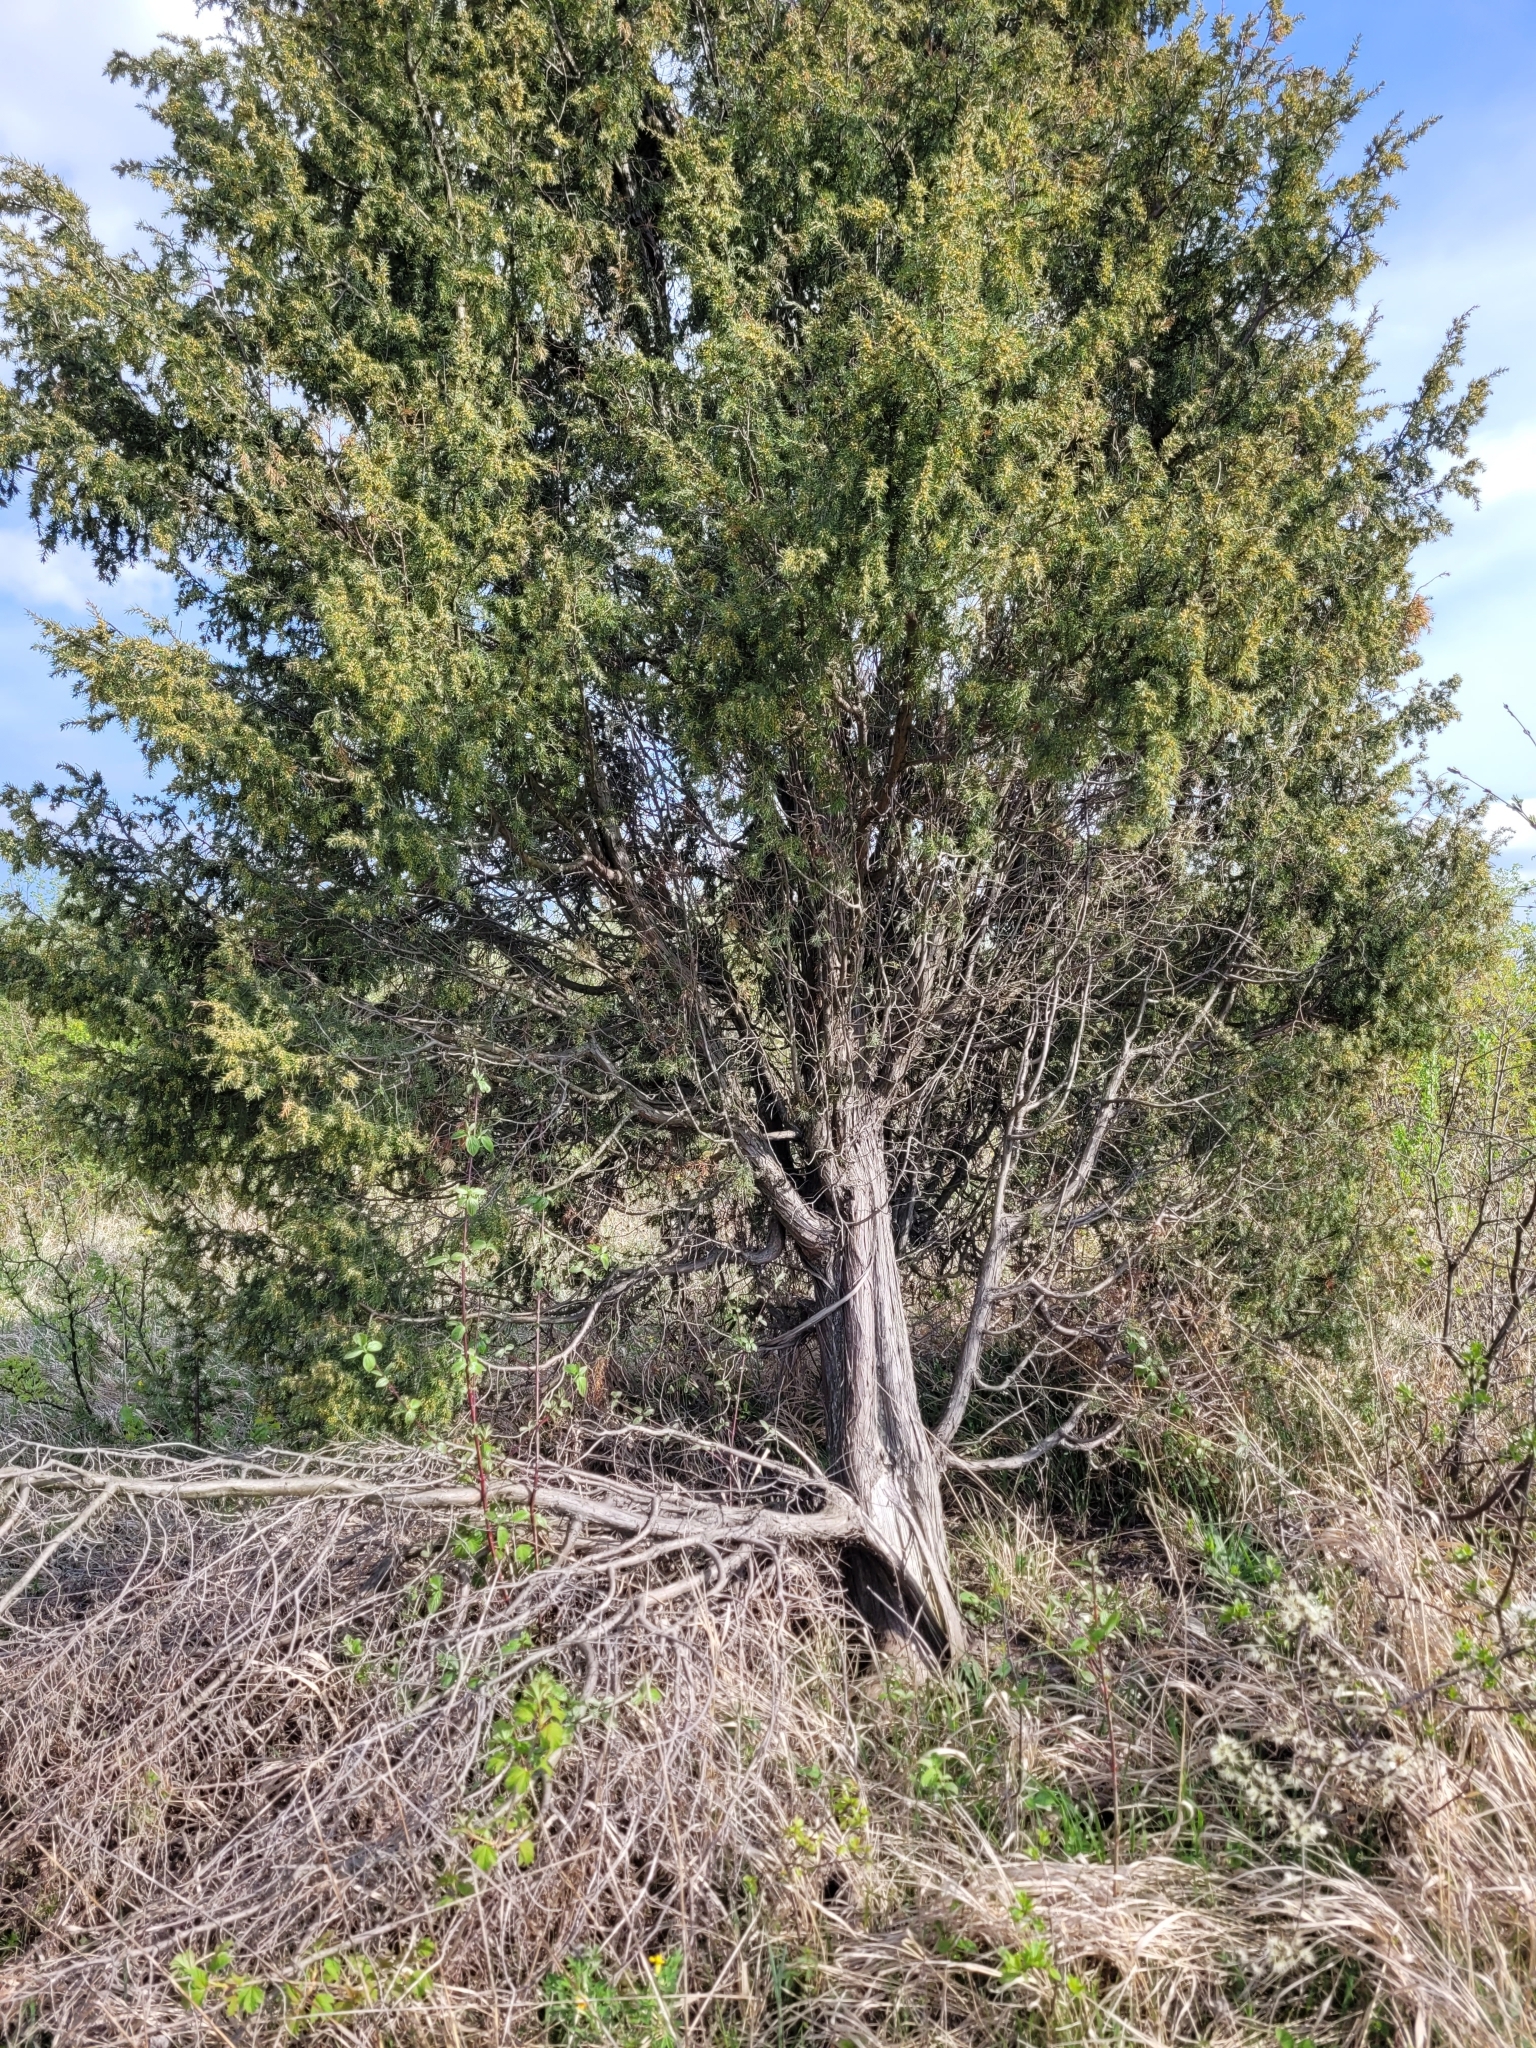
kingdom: Plantae
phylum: Tracheophyta
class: Pinopsida
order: Pinales
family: Cupressaceae
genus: Juniperus
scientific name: Juniperus communis
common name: Common juniper
